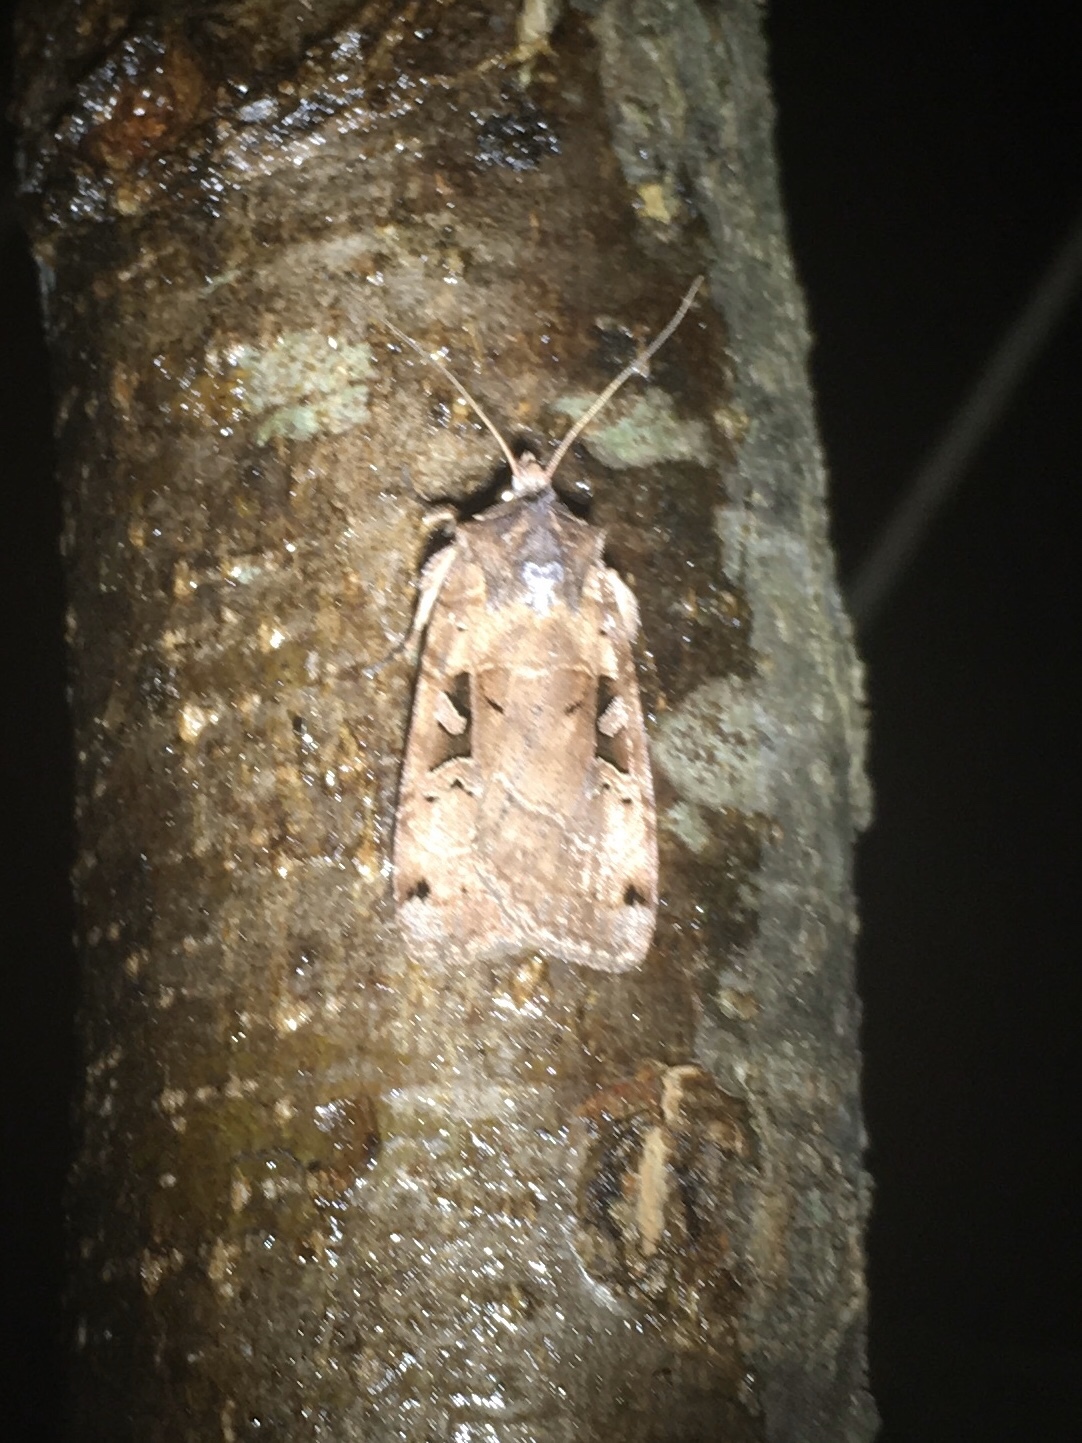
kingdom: Animalia
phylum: Arthropoda
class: Insecta
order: Lepidoptera
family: Noctuidae
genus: Xestia
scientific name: Xestia normaniana
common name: Norman's dart moth
